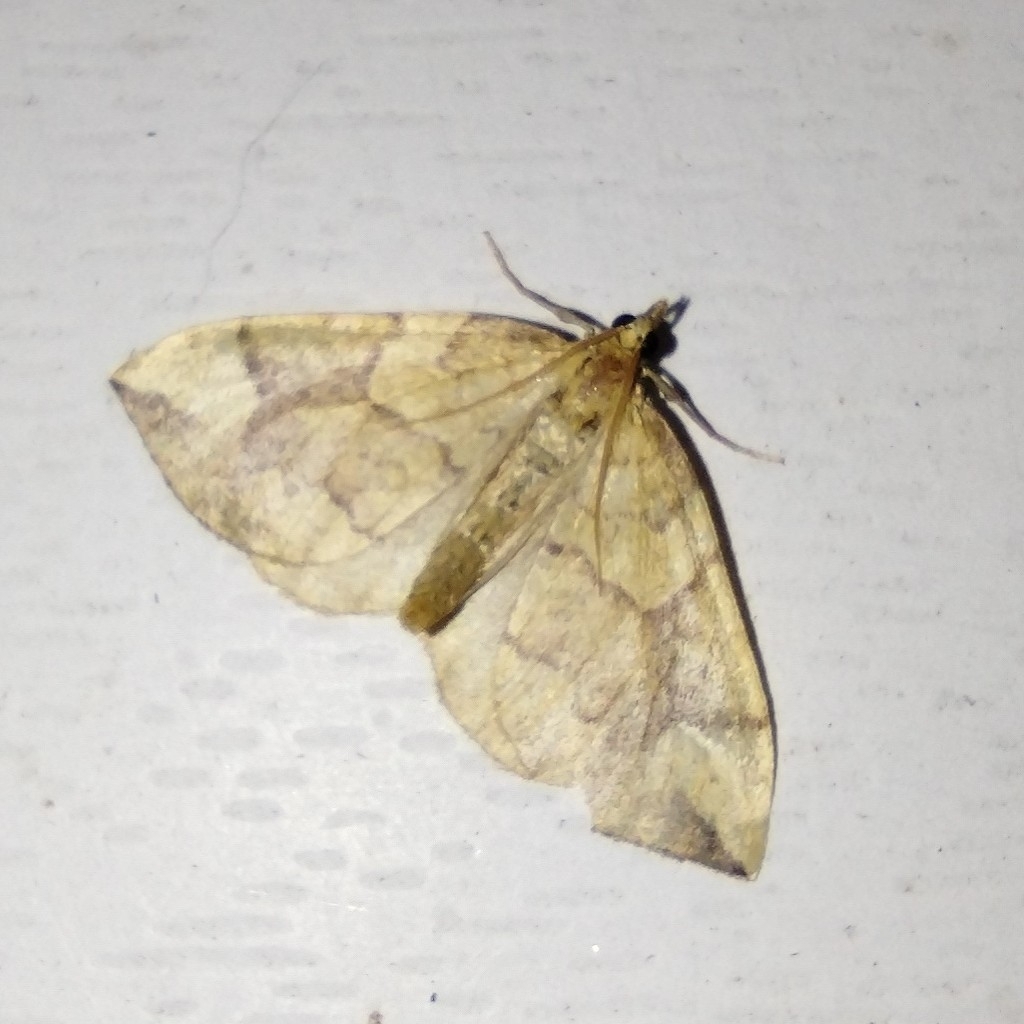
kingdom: Animalia
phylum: Arthropoda
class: Insecta
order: Lepidoptera
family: Geometridae
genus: Eulithis
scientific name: Eulithis populata
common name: Northern spinach
